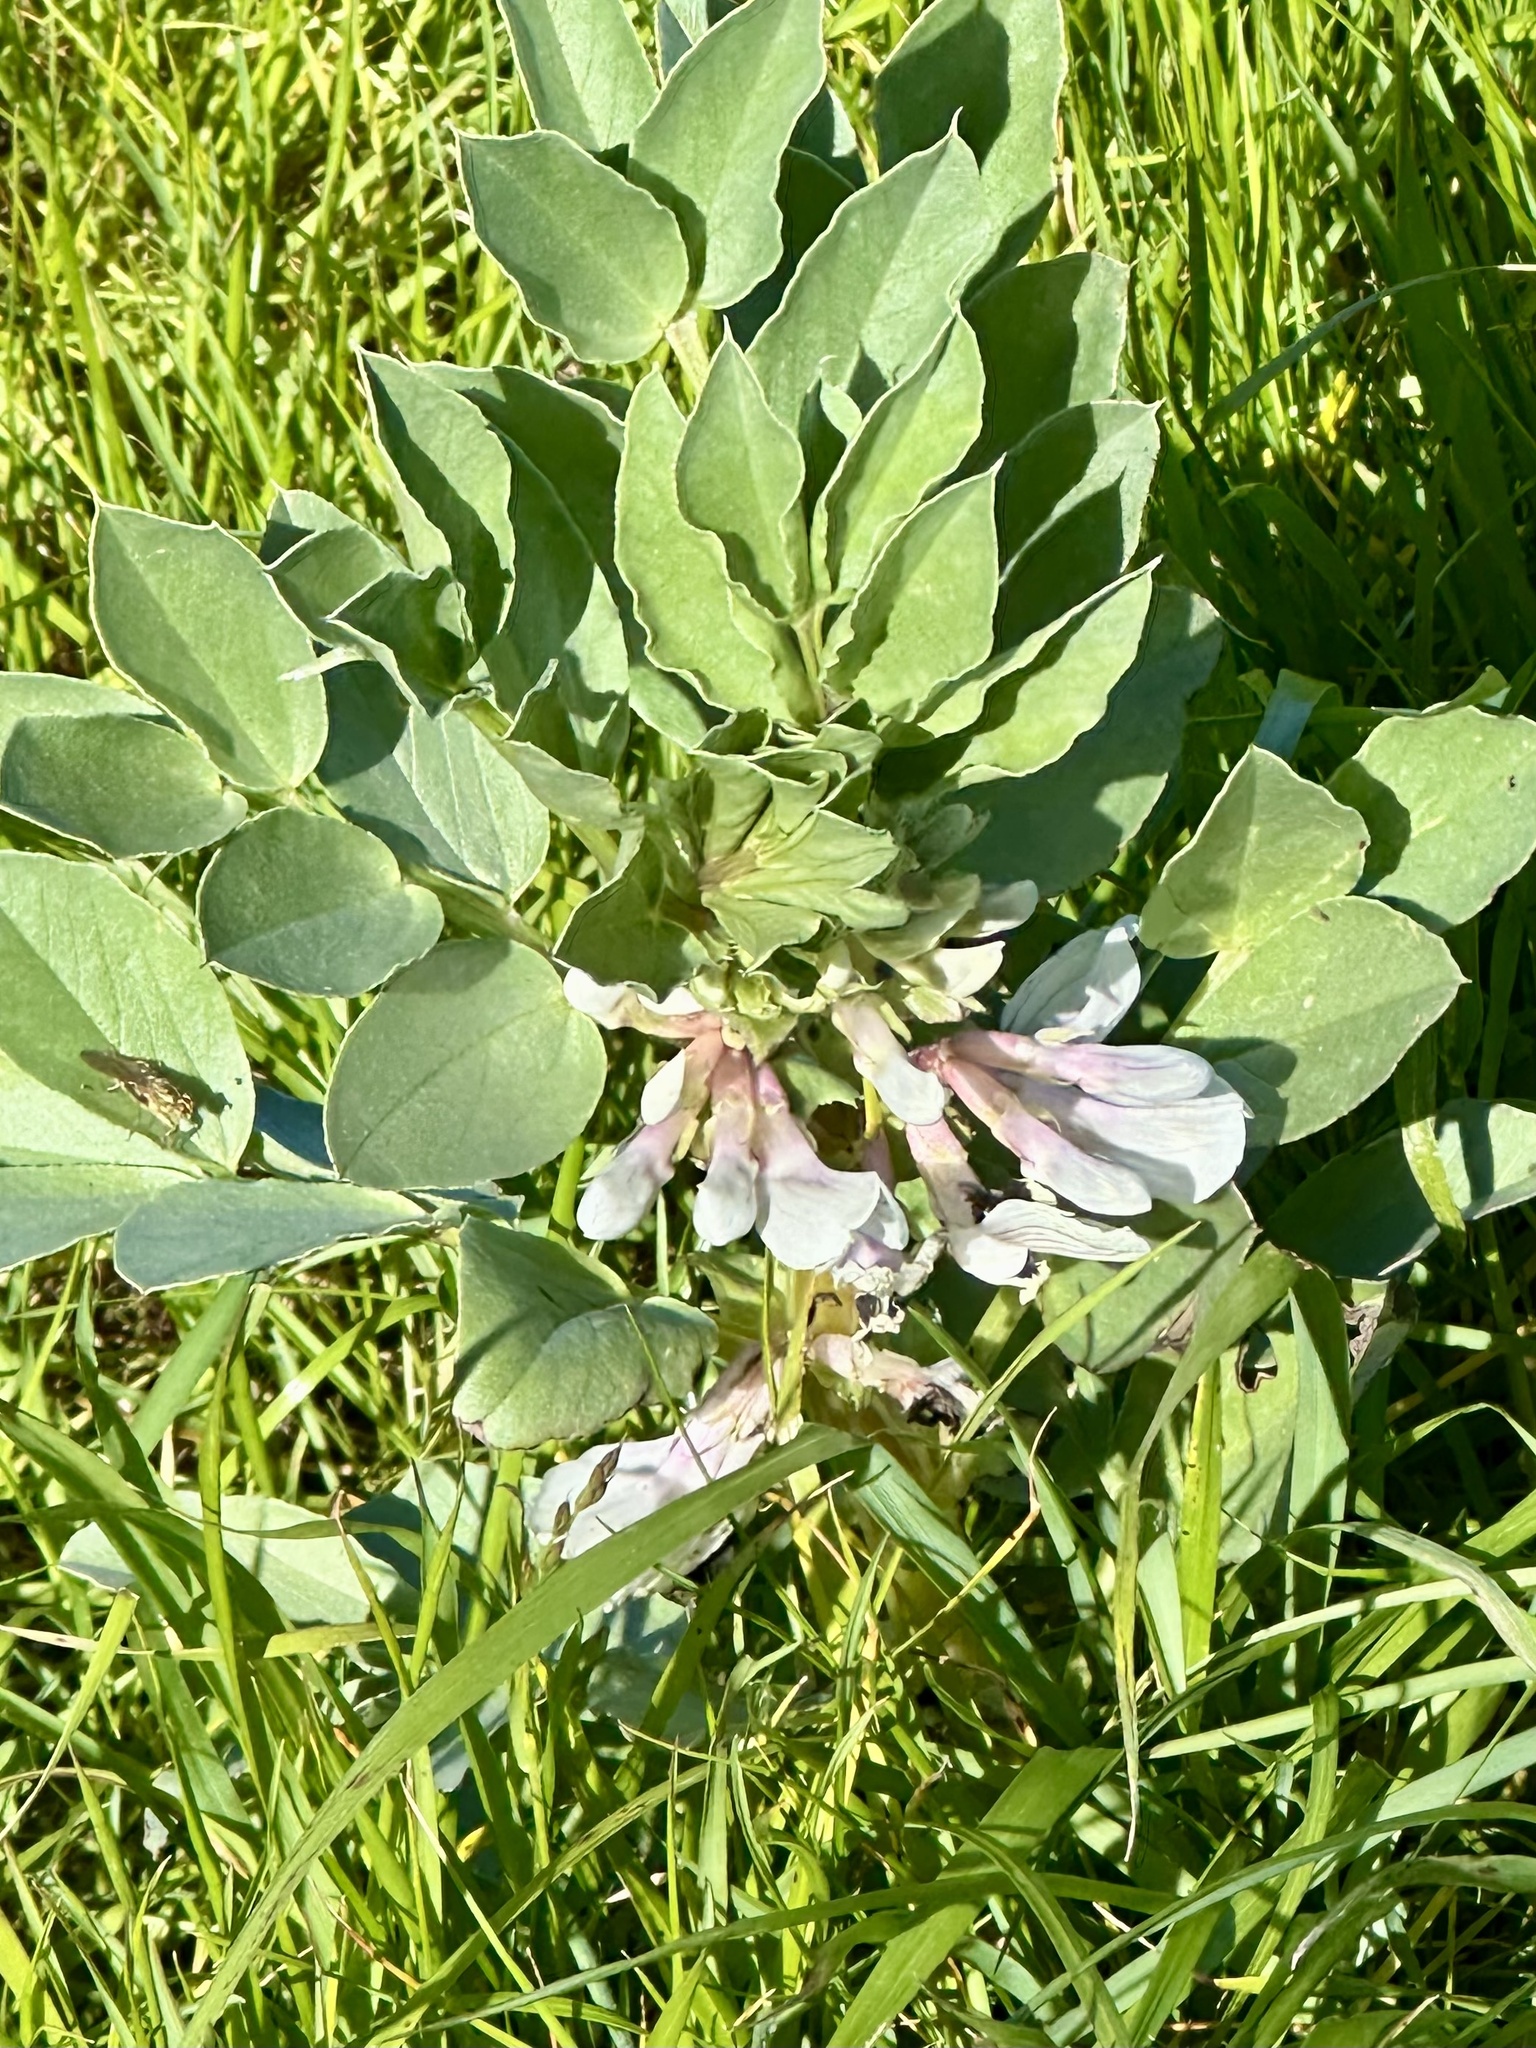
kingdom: Plantae
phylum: Tracheophyta
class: Magnoliopsida
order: Fabales
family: Fabaceae
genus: Vicia
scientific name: Vicia faba
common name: Broad bean
